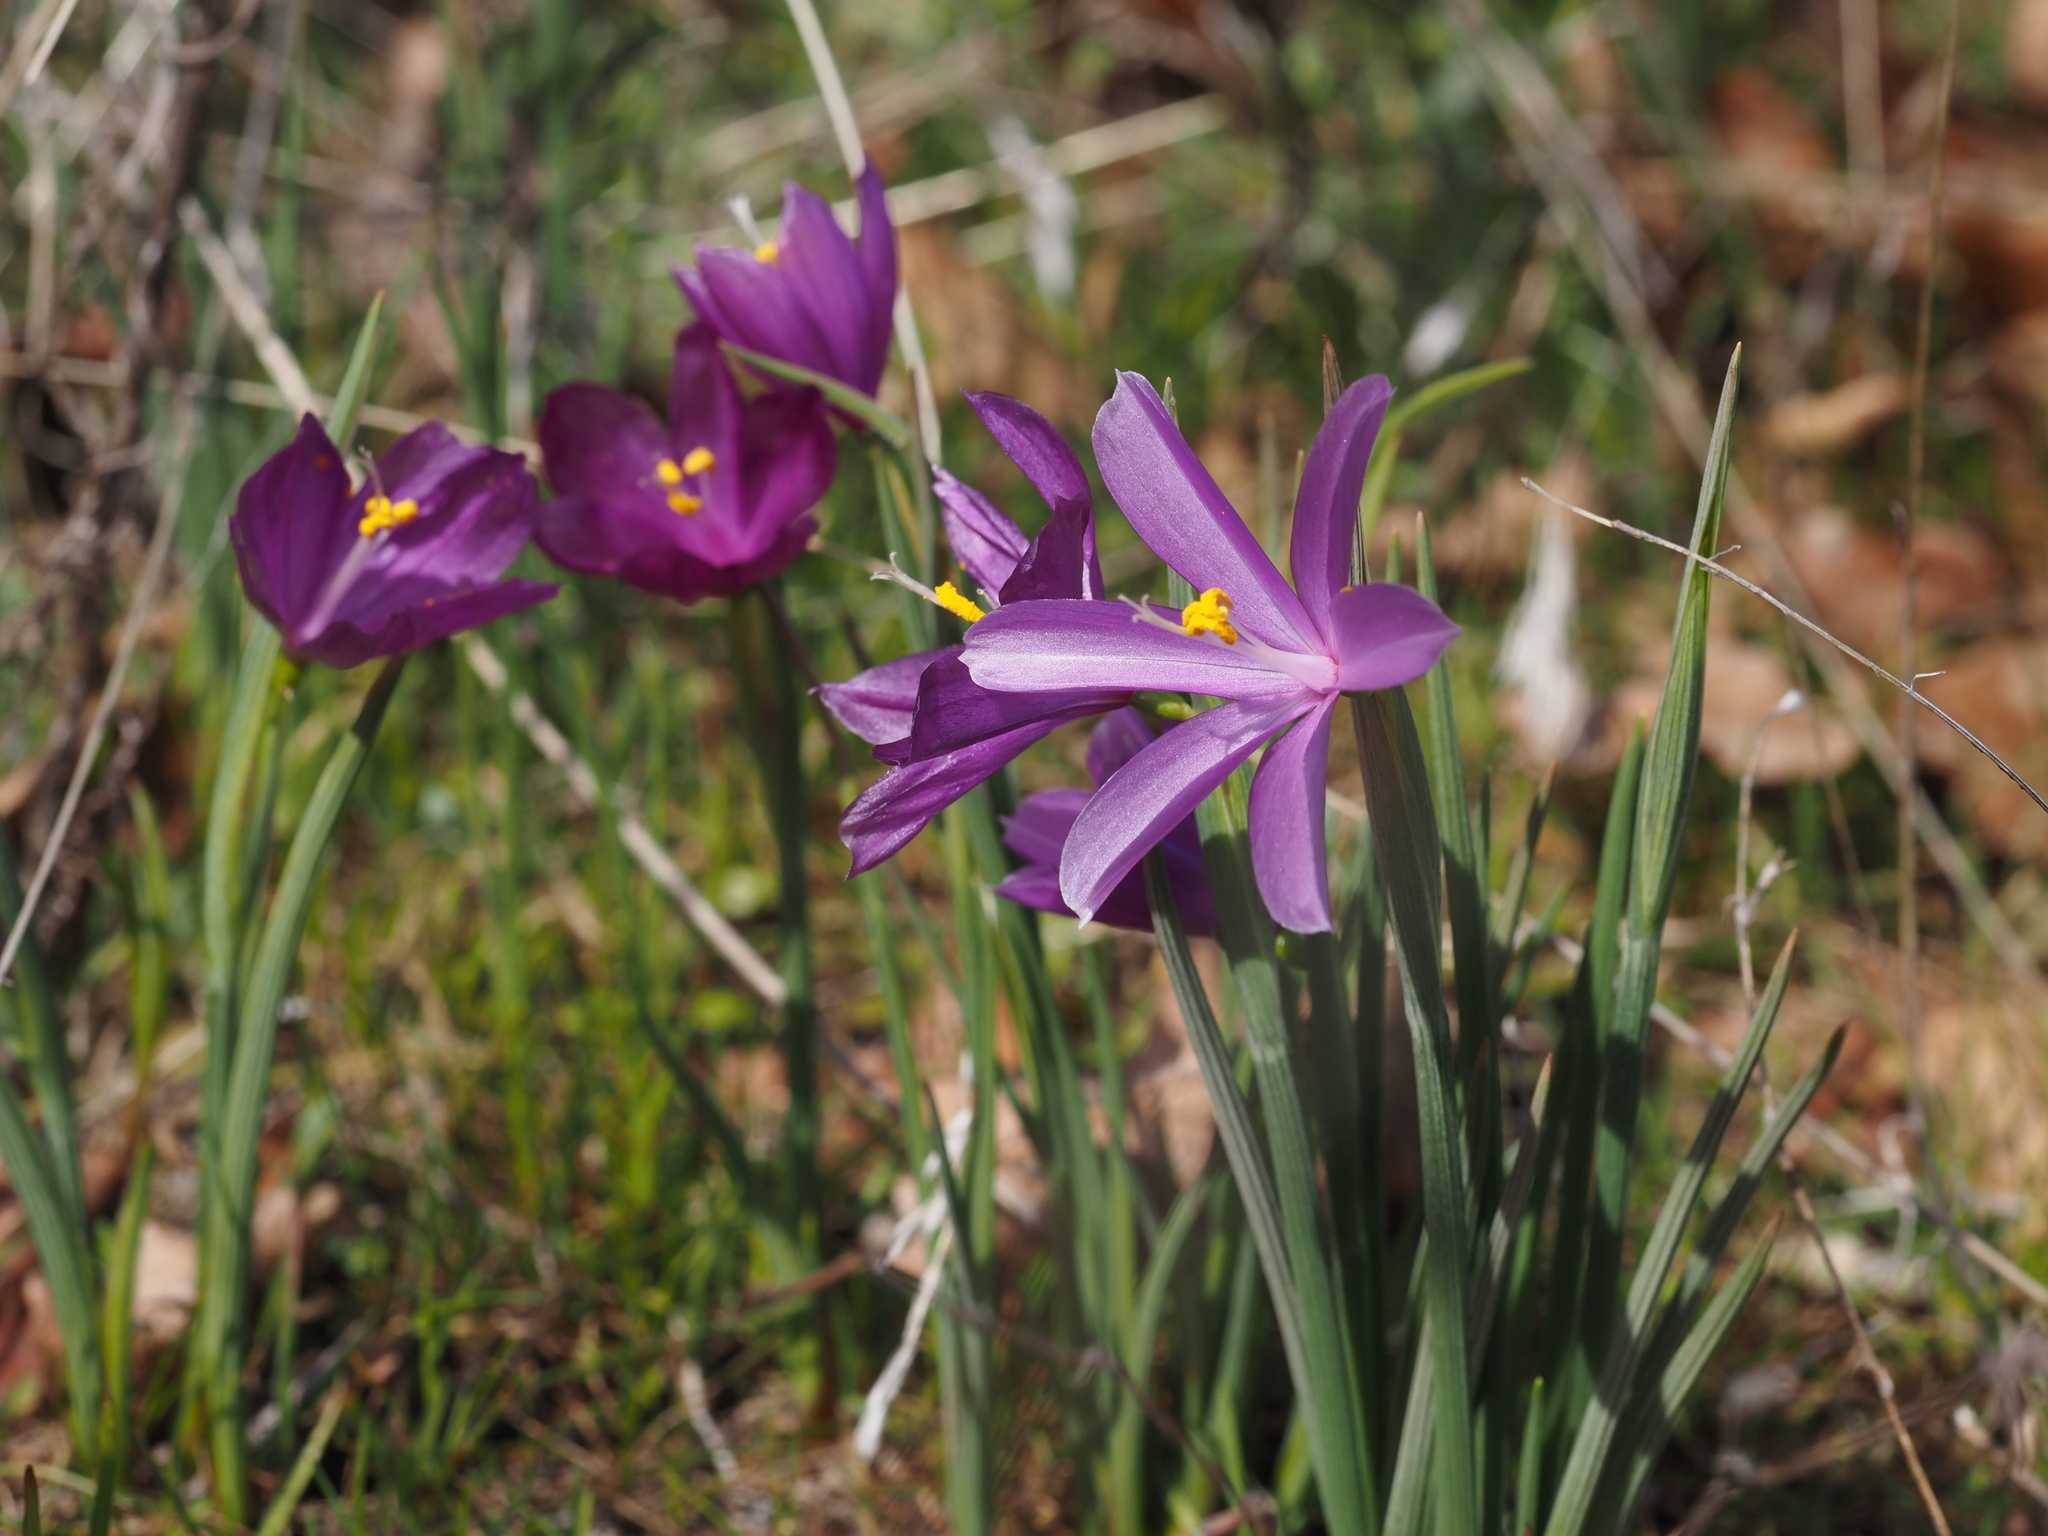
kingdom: Plantae
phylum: Tracheophyta
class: Liliopsida
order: Asparagales
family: Iridaceae
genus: Olsynium
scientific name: Olsynium douglasii
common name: Douglas' grasswidow
